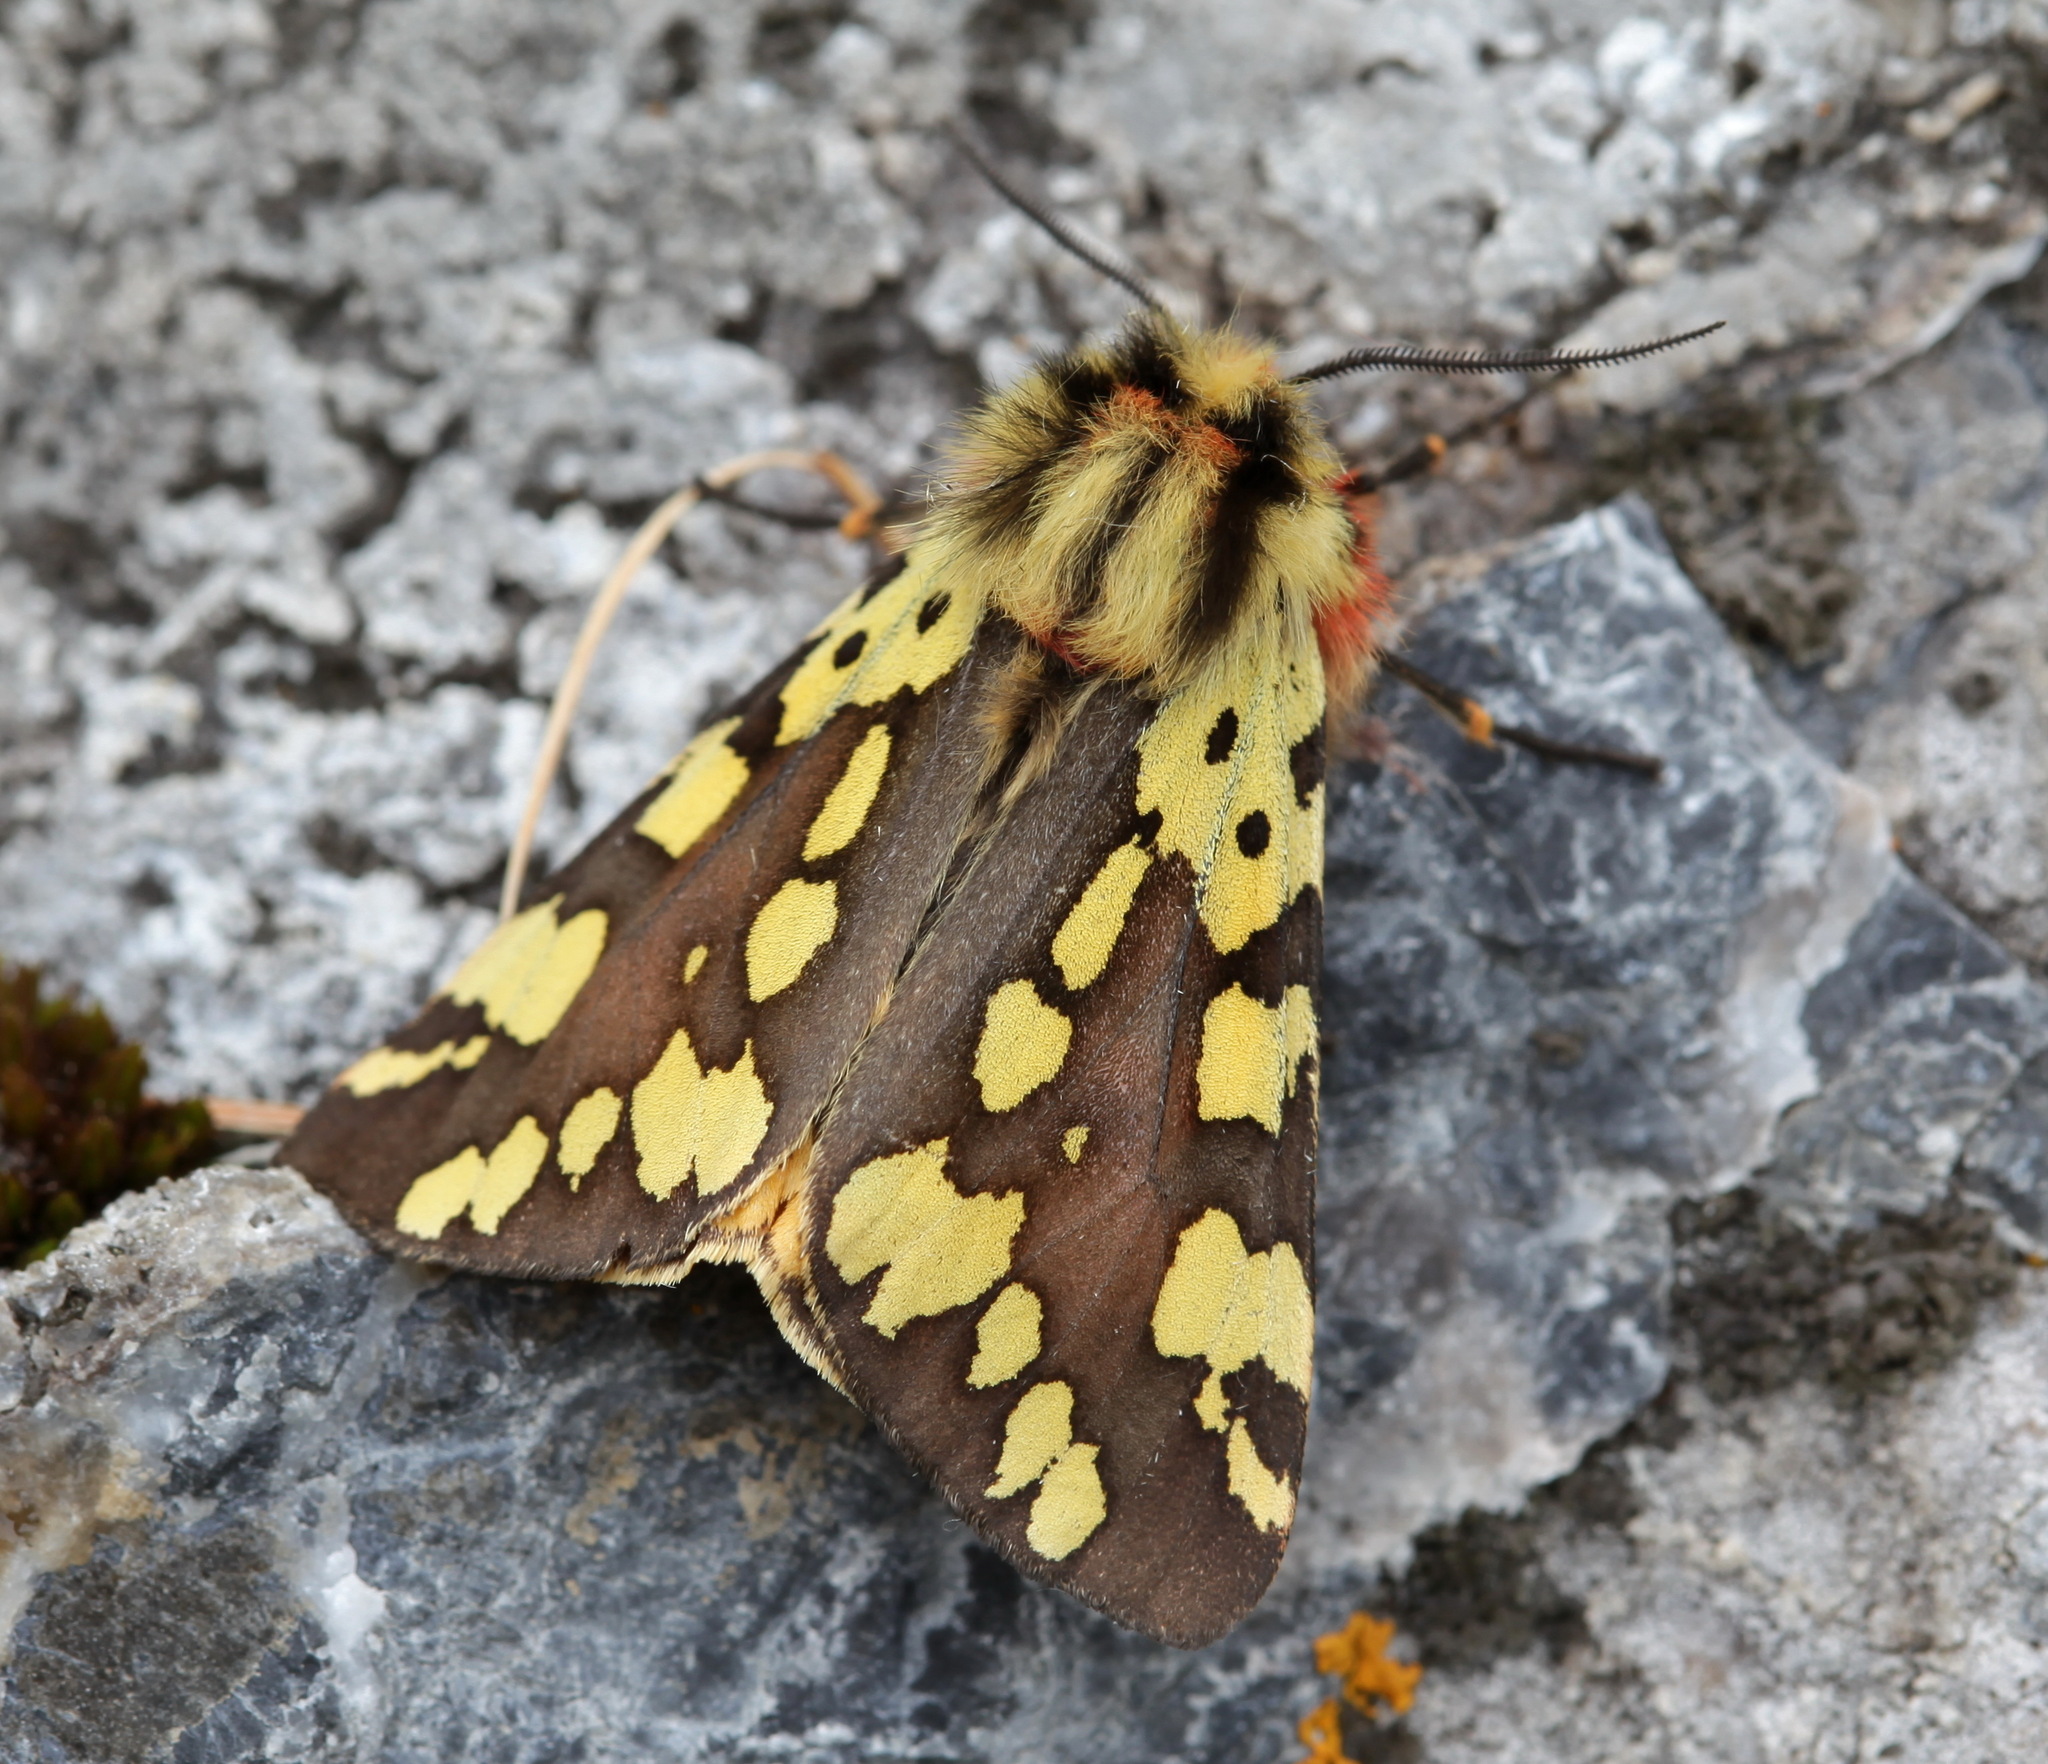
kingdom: Animalia
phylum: Arthropoda
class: Insecta
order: Lepidoptera
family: Erebidae
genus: Platarctia
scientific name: Platarctia ornata
